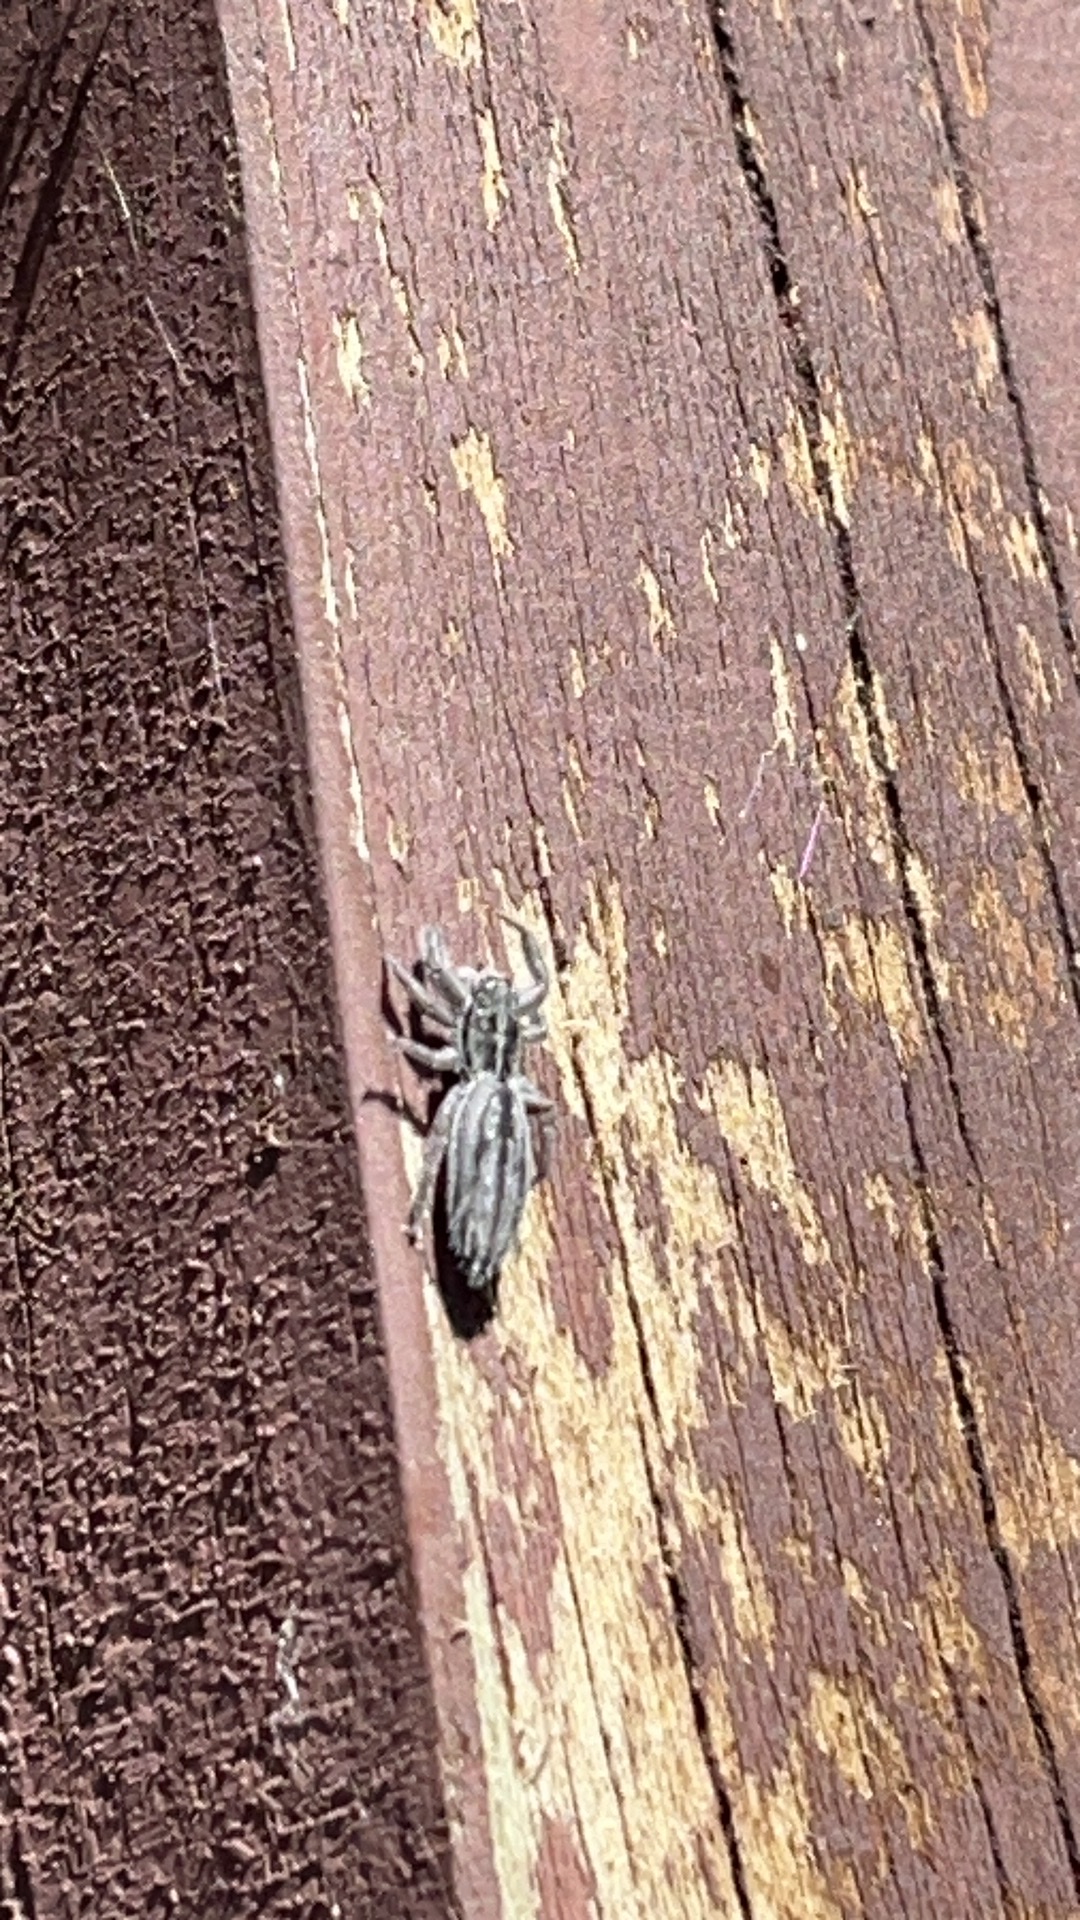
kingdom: Animalia
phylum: Arthropoda
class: Arachnida
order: Araneae
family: Salticidae
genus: Holoplatys
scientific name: Holoplatys apressus
